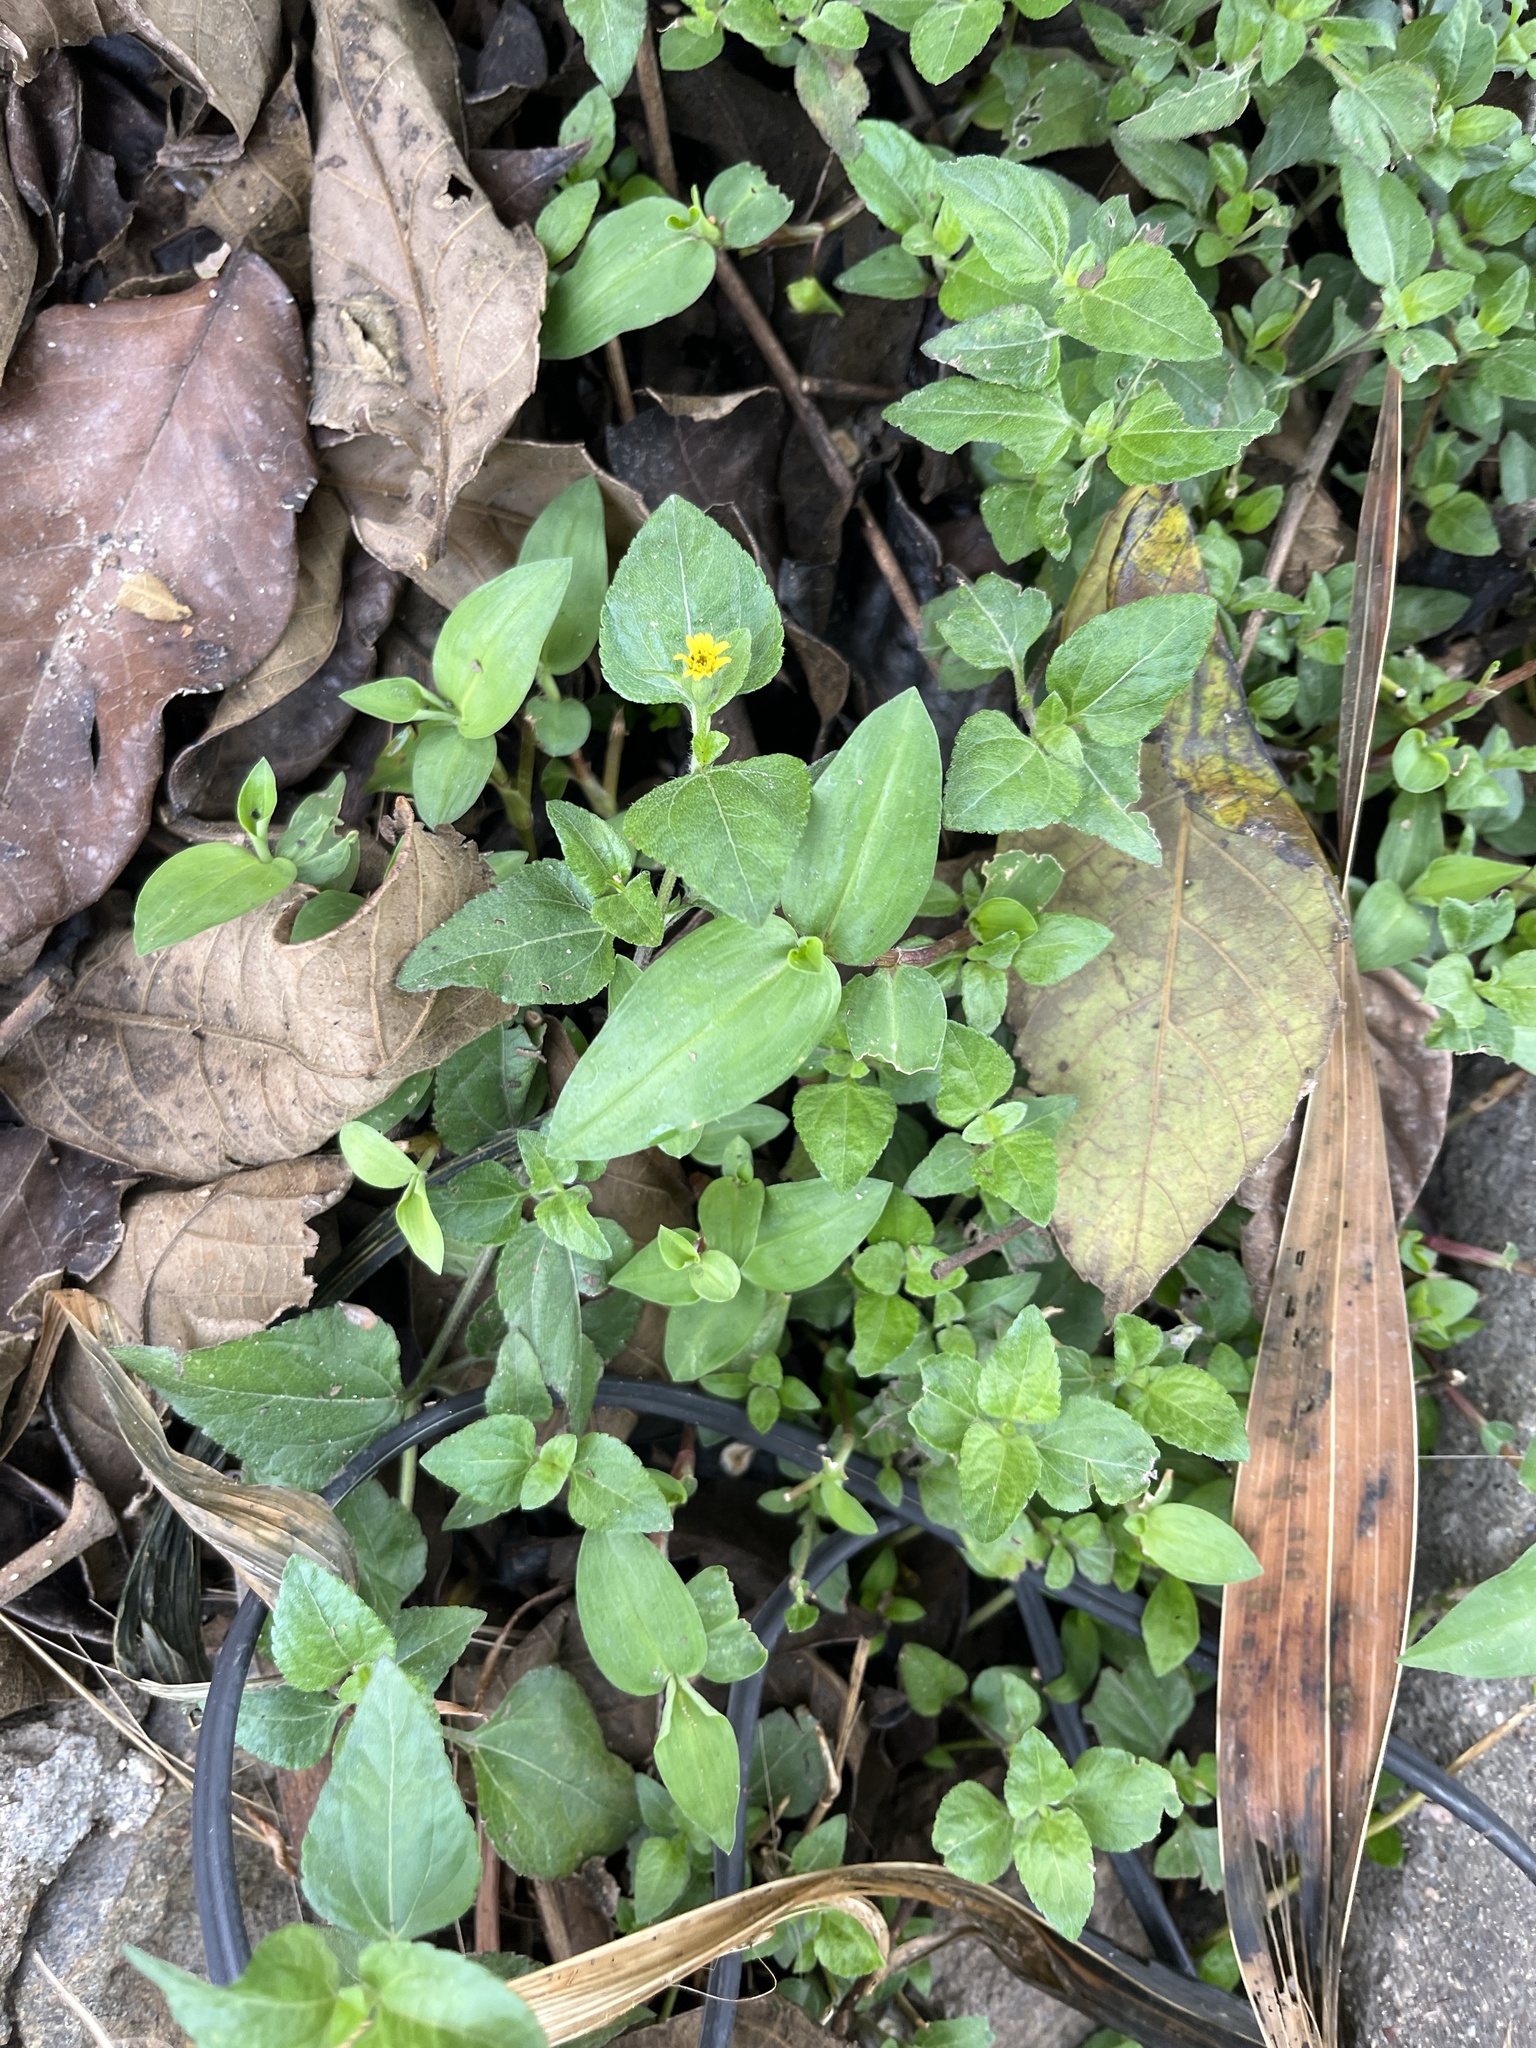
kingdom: Plantae
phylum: Tracheophyta
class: Magnoliopsida
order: Asterales
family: Asteraceae
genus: Calyptocarpus
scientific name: Calyptocarpus vialis
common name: Straggler daisy
